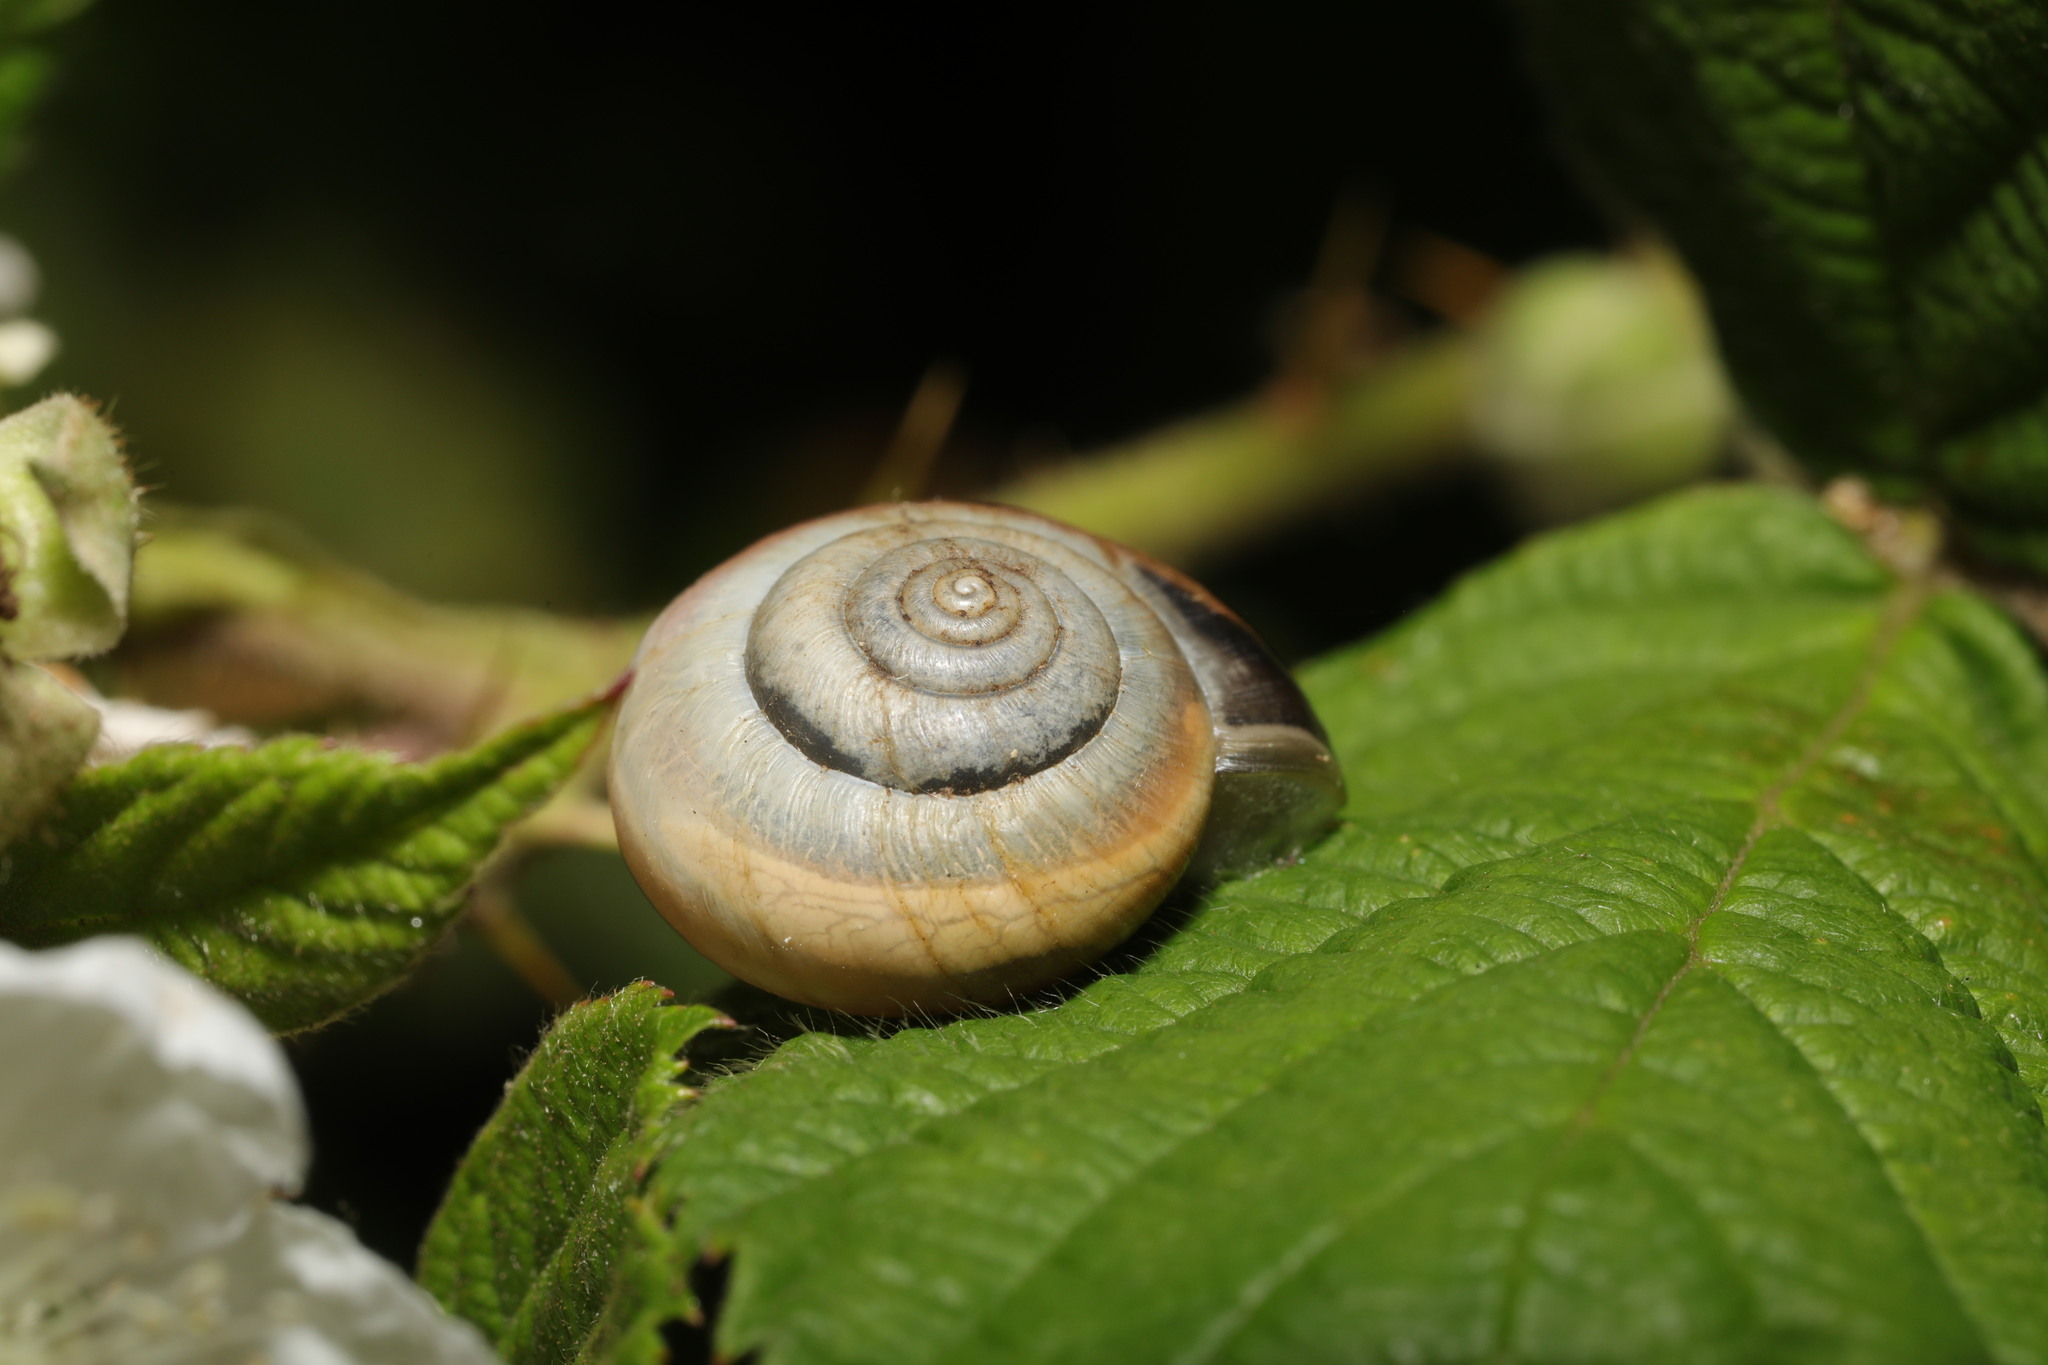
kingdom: Animalia
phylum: Mollusca
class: Gastropoda
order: Stylommatophora
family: Hygromiidae
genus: Monacha
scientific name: Monacha cantiana
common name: Kentish snail
